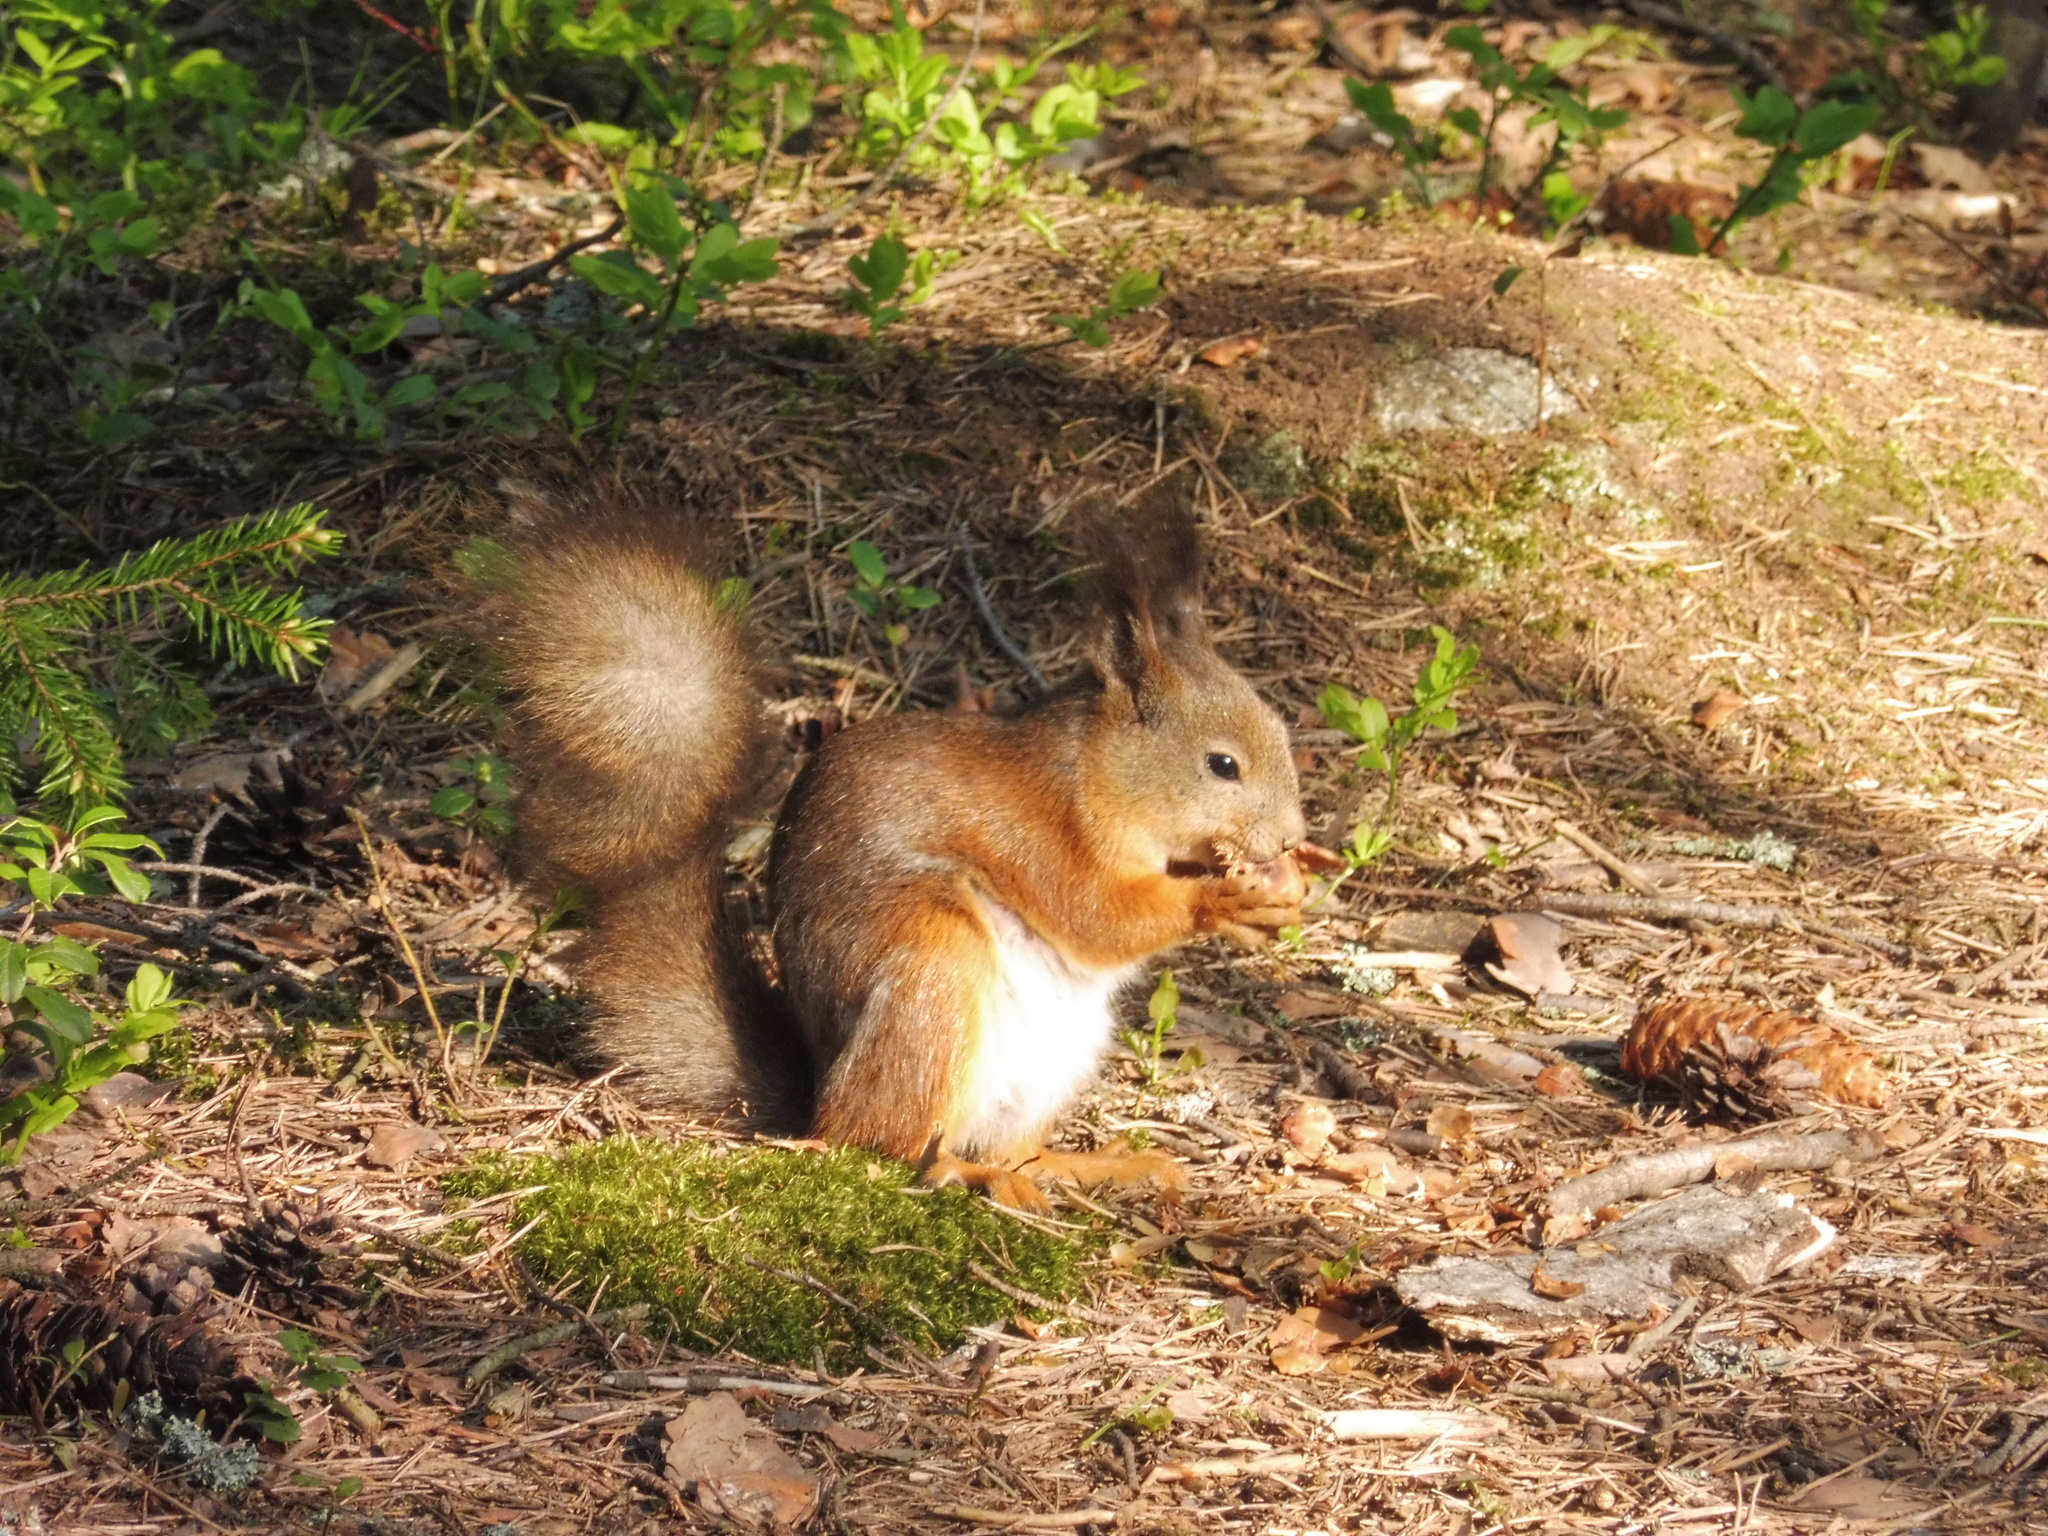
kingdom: Animalia
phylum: Chordata
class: Mammalia
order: Rodentia
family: Sciuridae
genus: Sciurus
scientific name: Sciurus vulgaris
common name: Eurasian red squirrel
